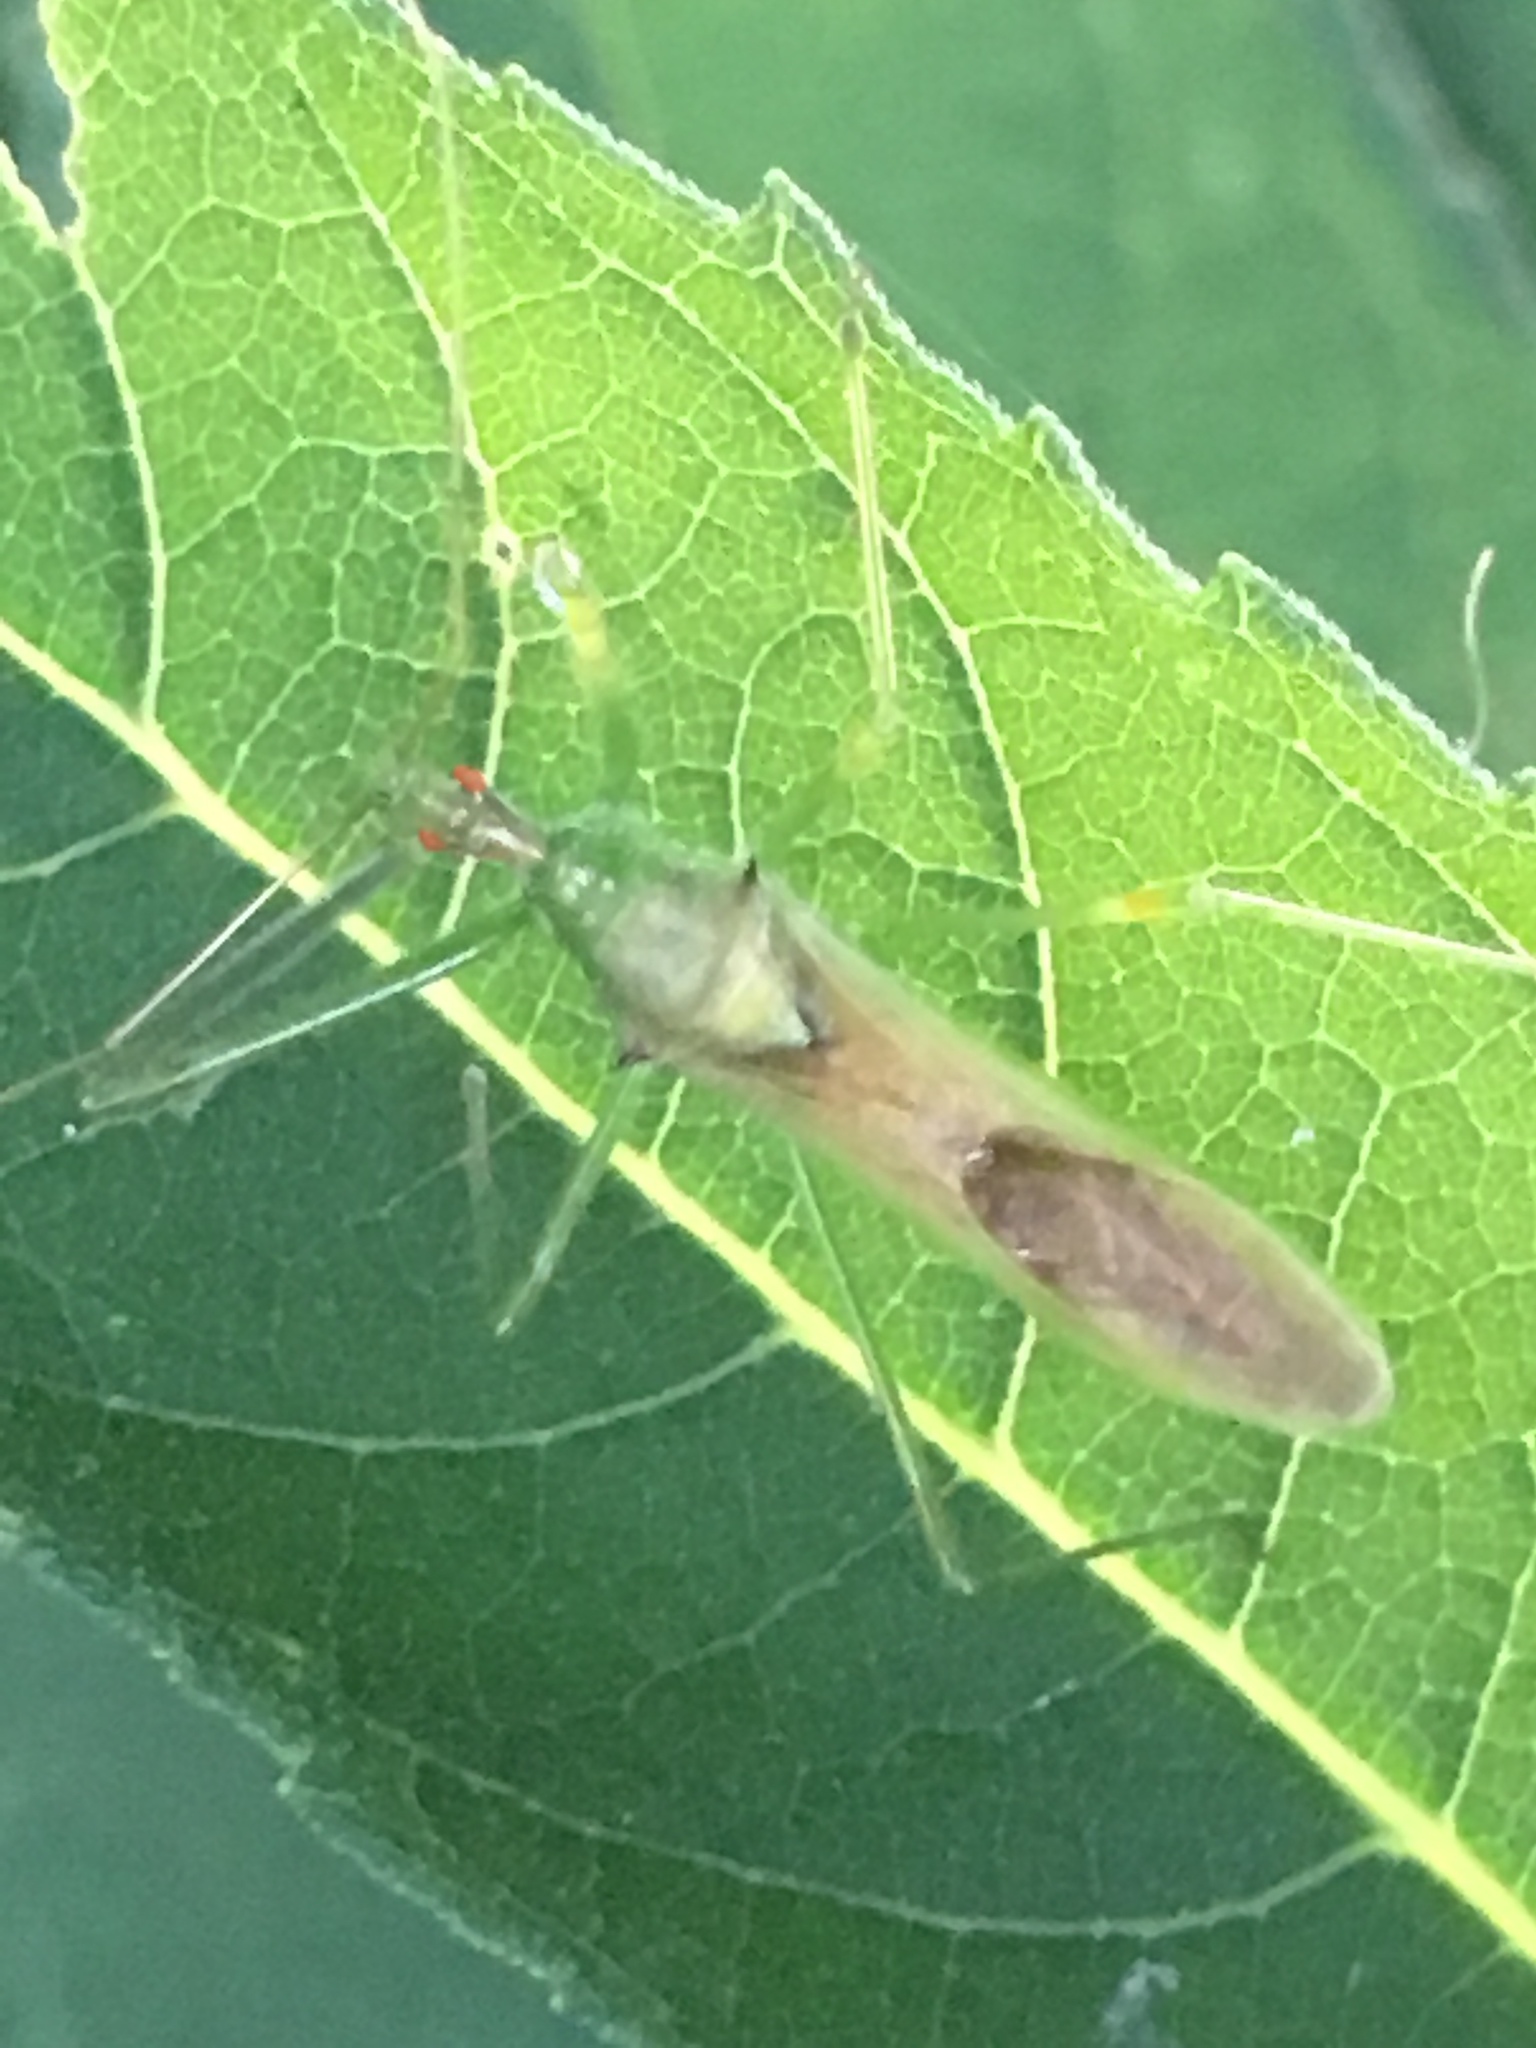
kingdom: Animalia
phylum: Arthropoda
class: Insecta
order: Hemiptera
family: Reduviidae
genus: Zelus
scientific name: Zelus luridus
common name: Pale green assassin bug
